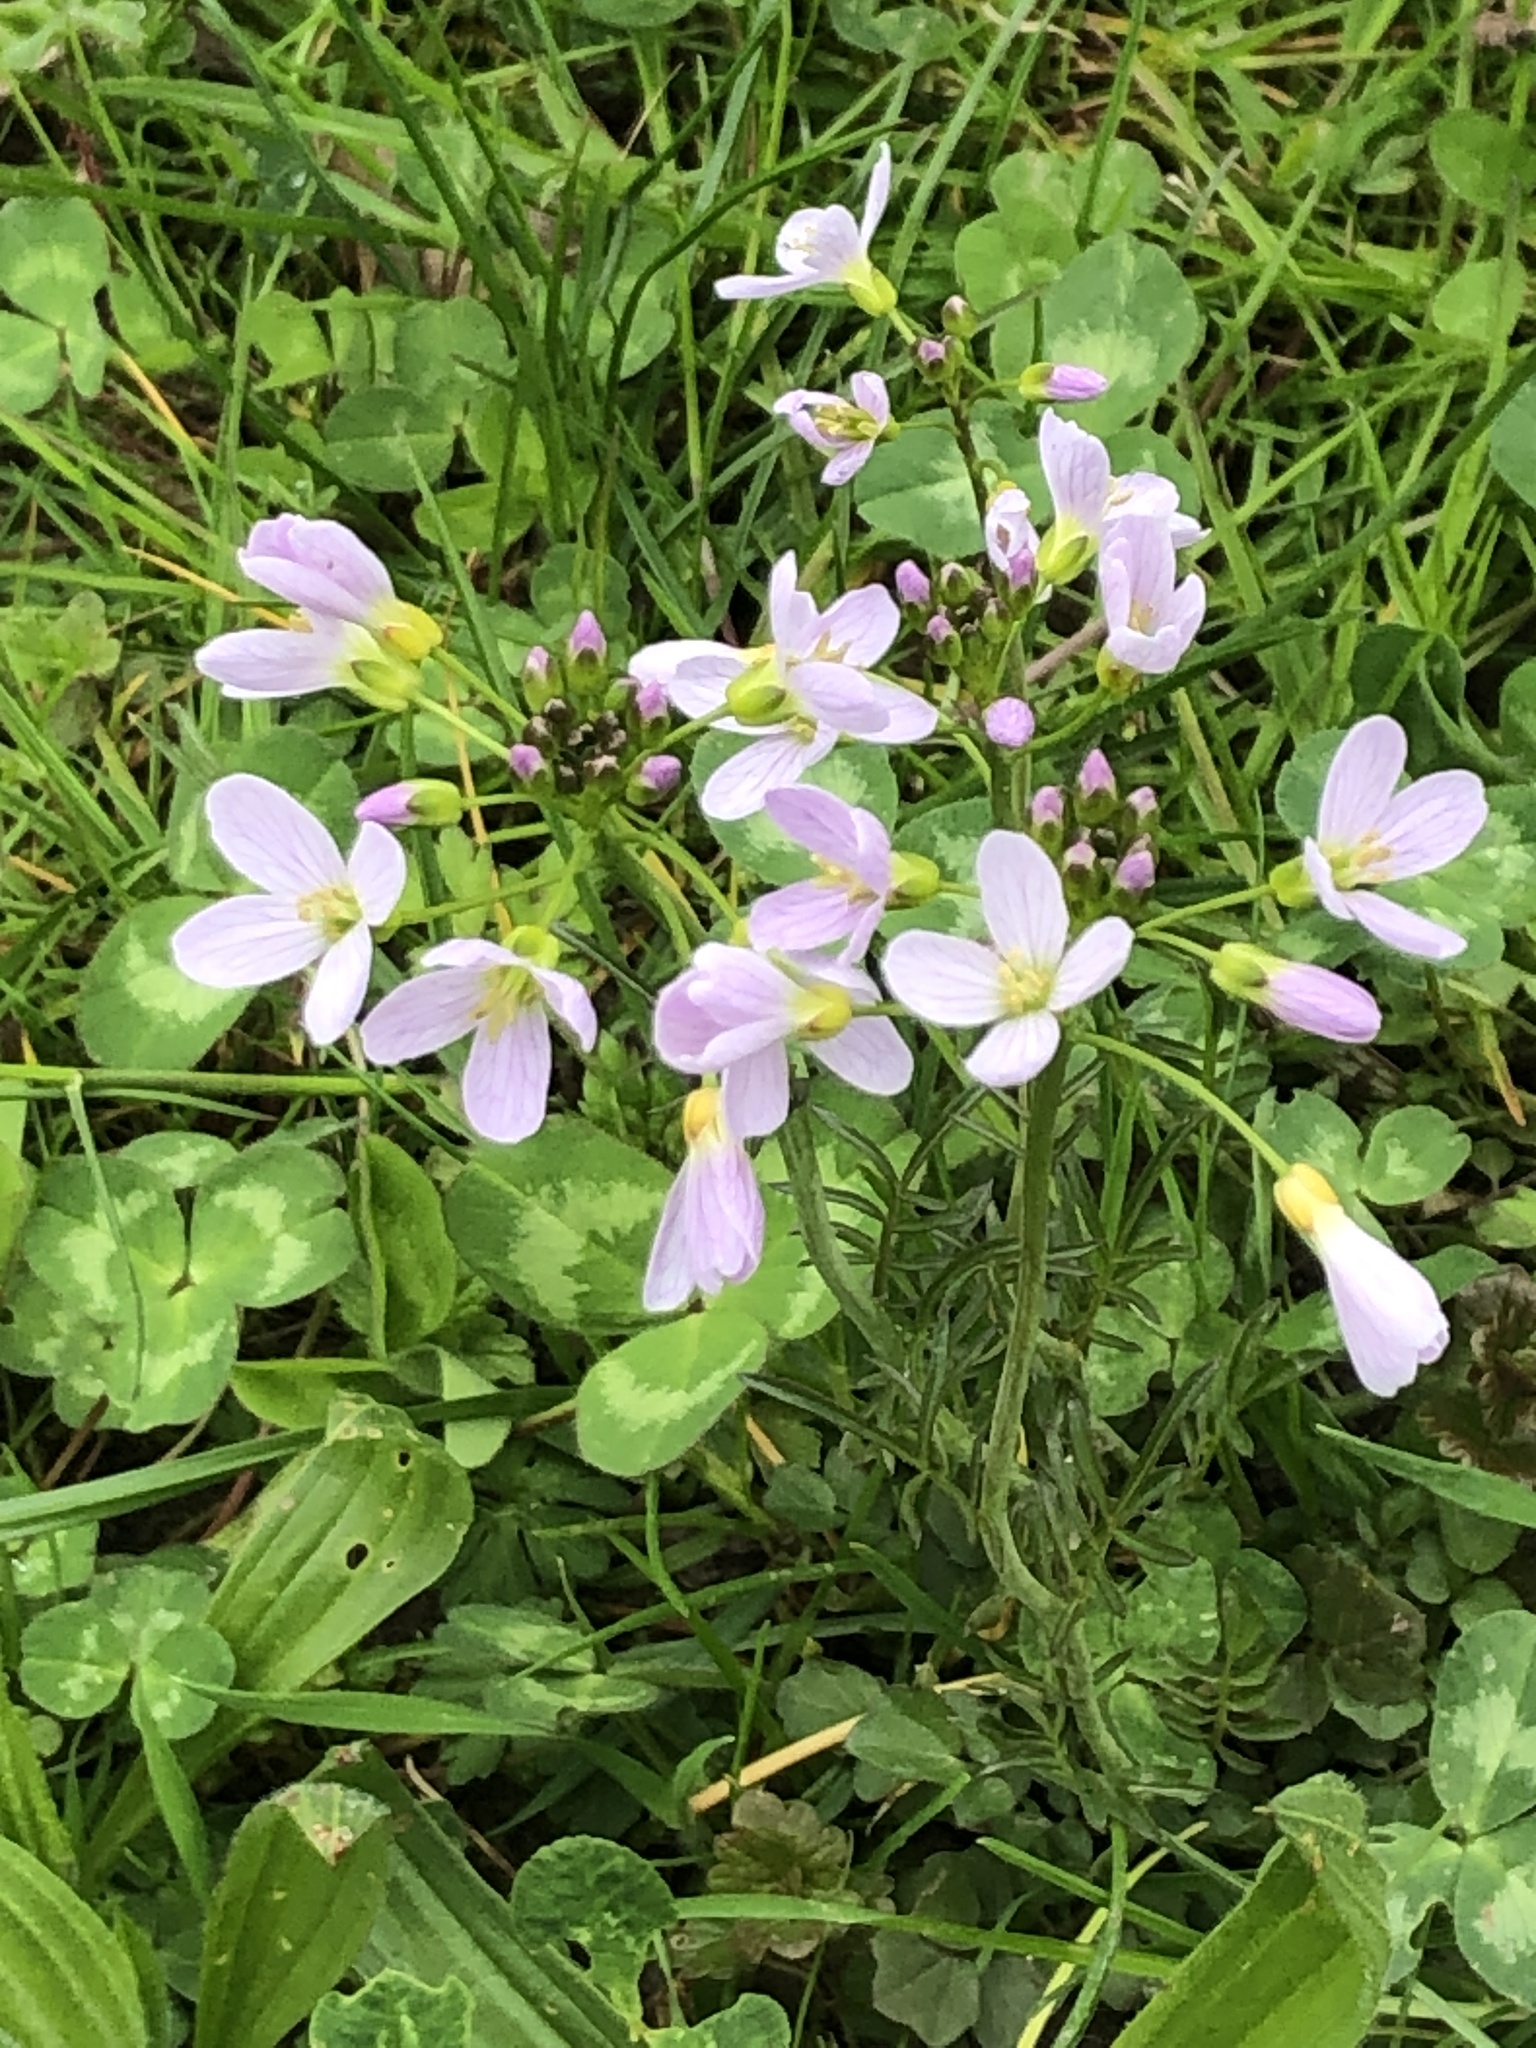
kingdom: Plantae
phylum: Tracheophyta
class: Magnoliopsida
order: Brassicales
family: Brassicaceae
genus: Cardamine
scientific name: Cardamine pratensis
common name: Cuckoo flower
